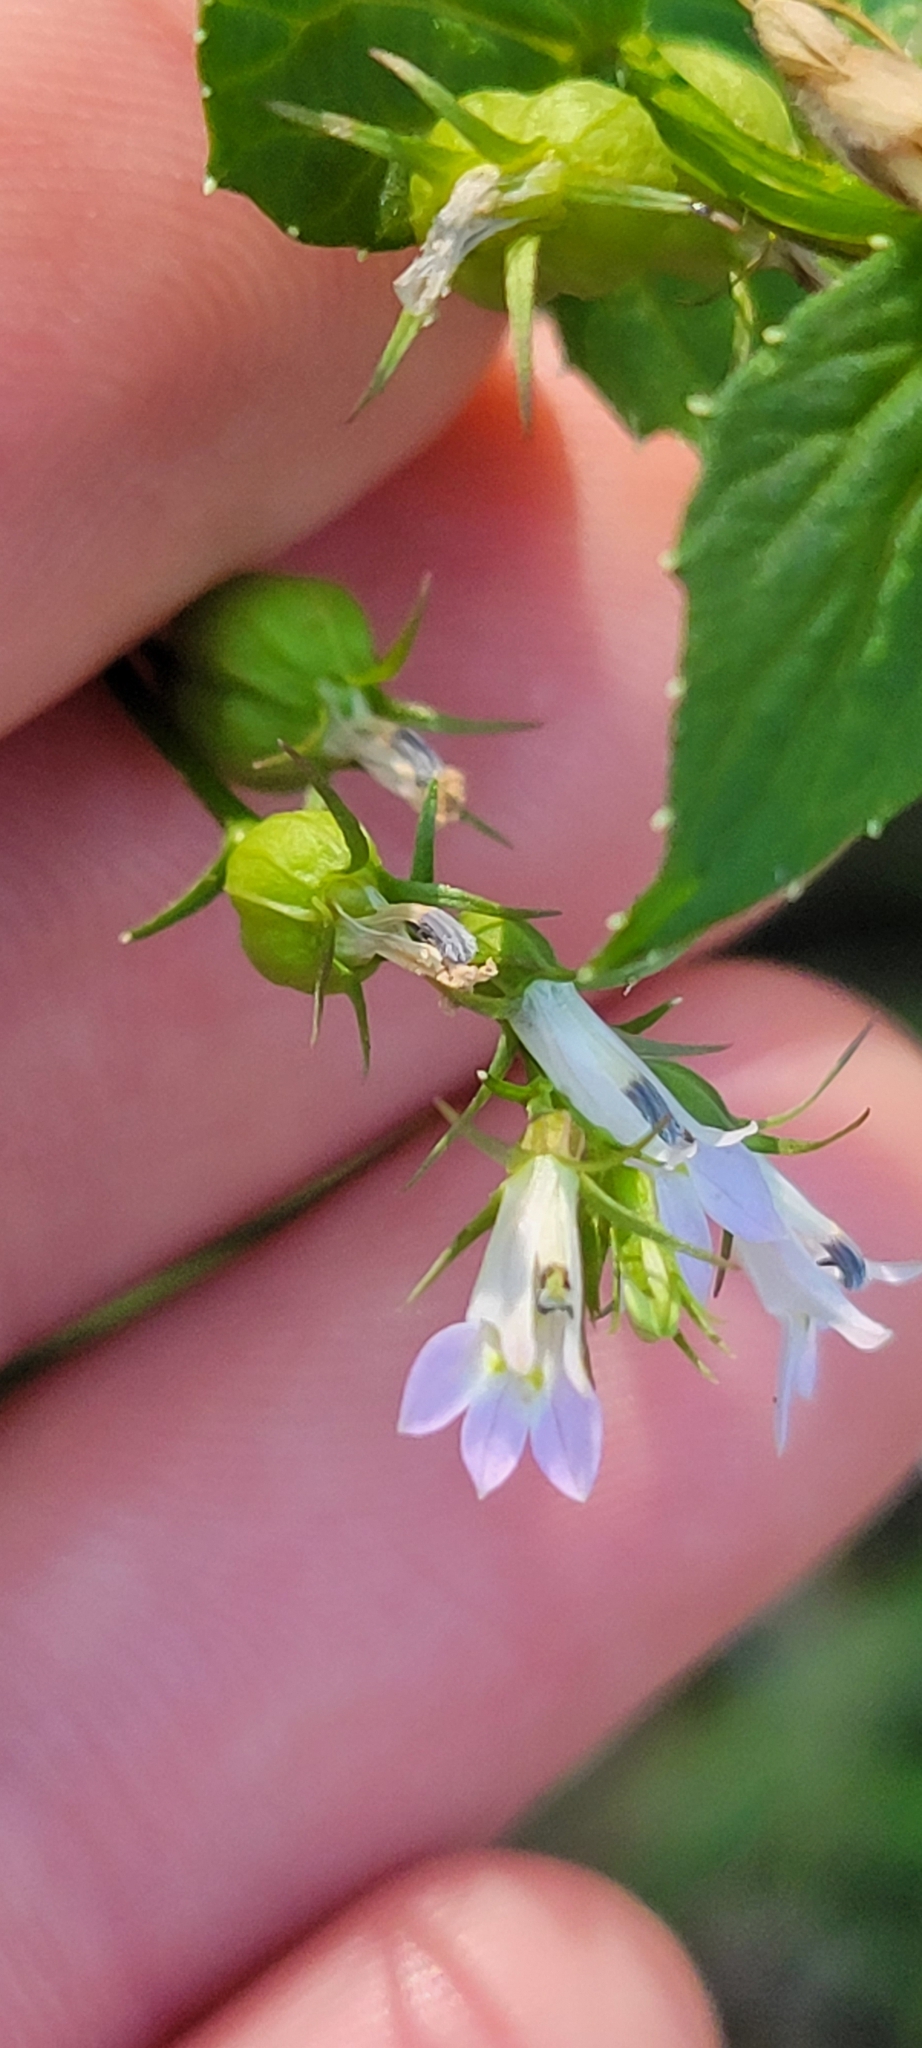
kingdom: Plantae
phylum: Tracheophyta
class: Magnoliopsida
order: Asterales
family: Campanulaceae
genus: Lobelia
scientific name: Lobelia inflata
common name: Indian tobacco
